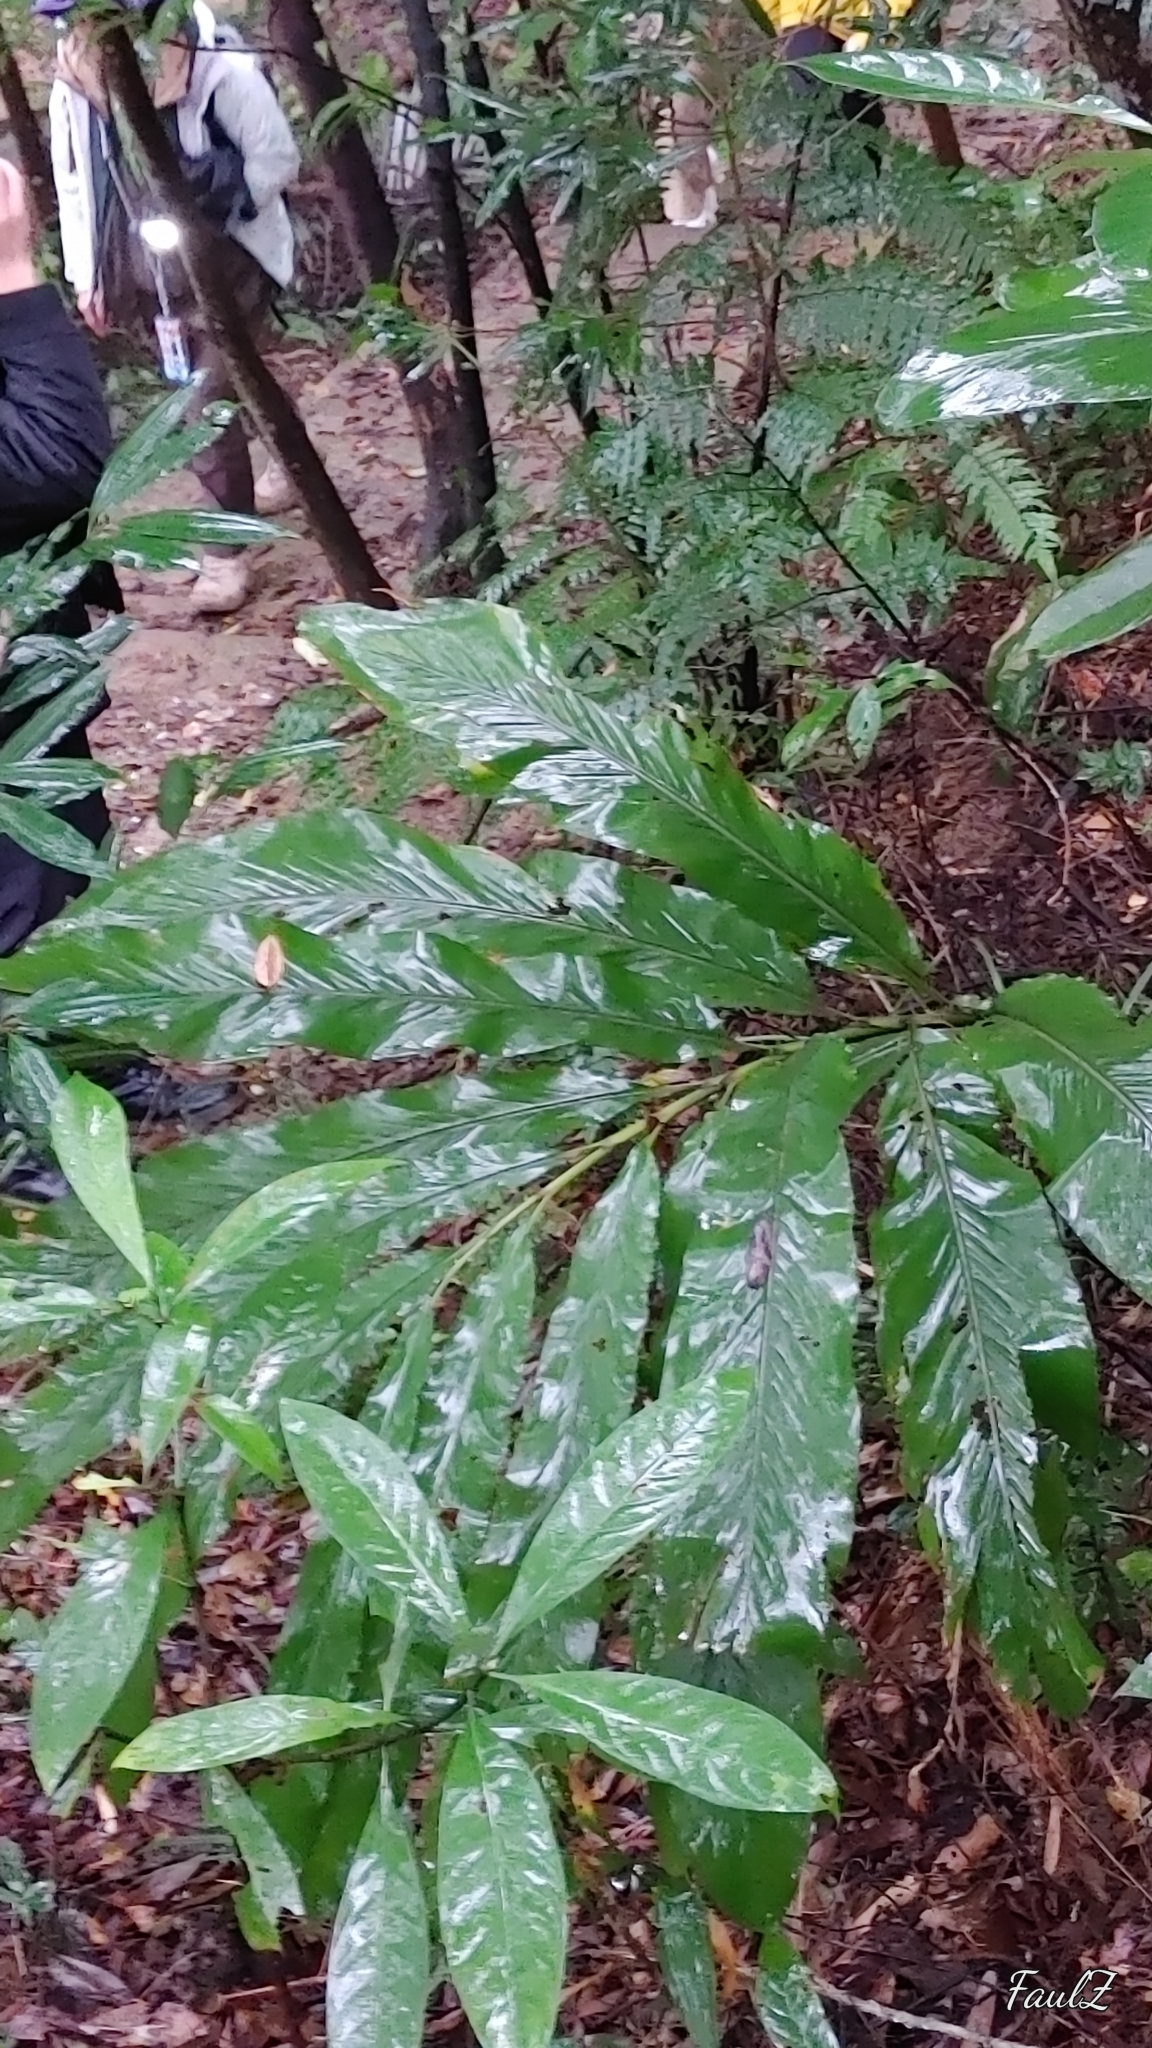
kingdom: Plantae
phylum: Tracheophyta
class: Liliopsida
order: Zingiberales
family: Zingiberaceae
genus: Alpinia
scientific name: Alpinia uraiensis
